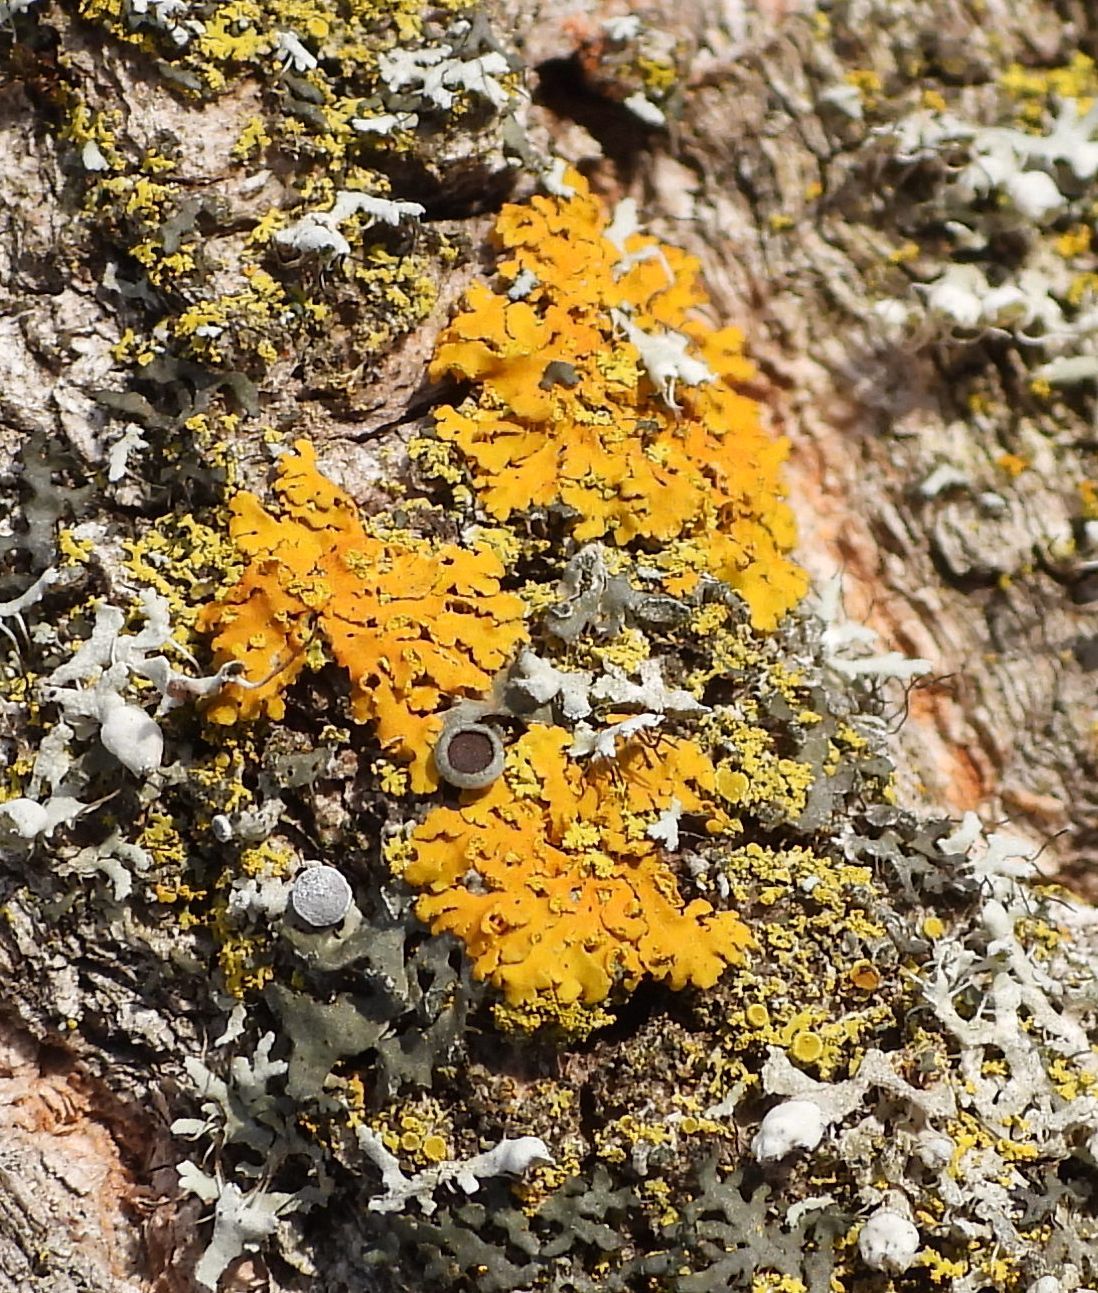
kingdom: Fungi
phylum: Ascomycota
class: Lecanoromycetes
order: Teloschistales
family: Teloschistaceae
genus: Oxneria
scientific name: Oxneria fallax
